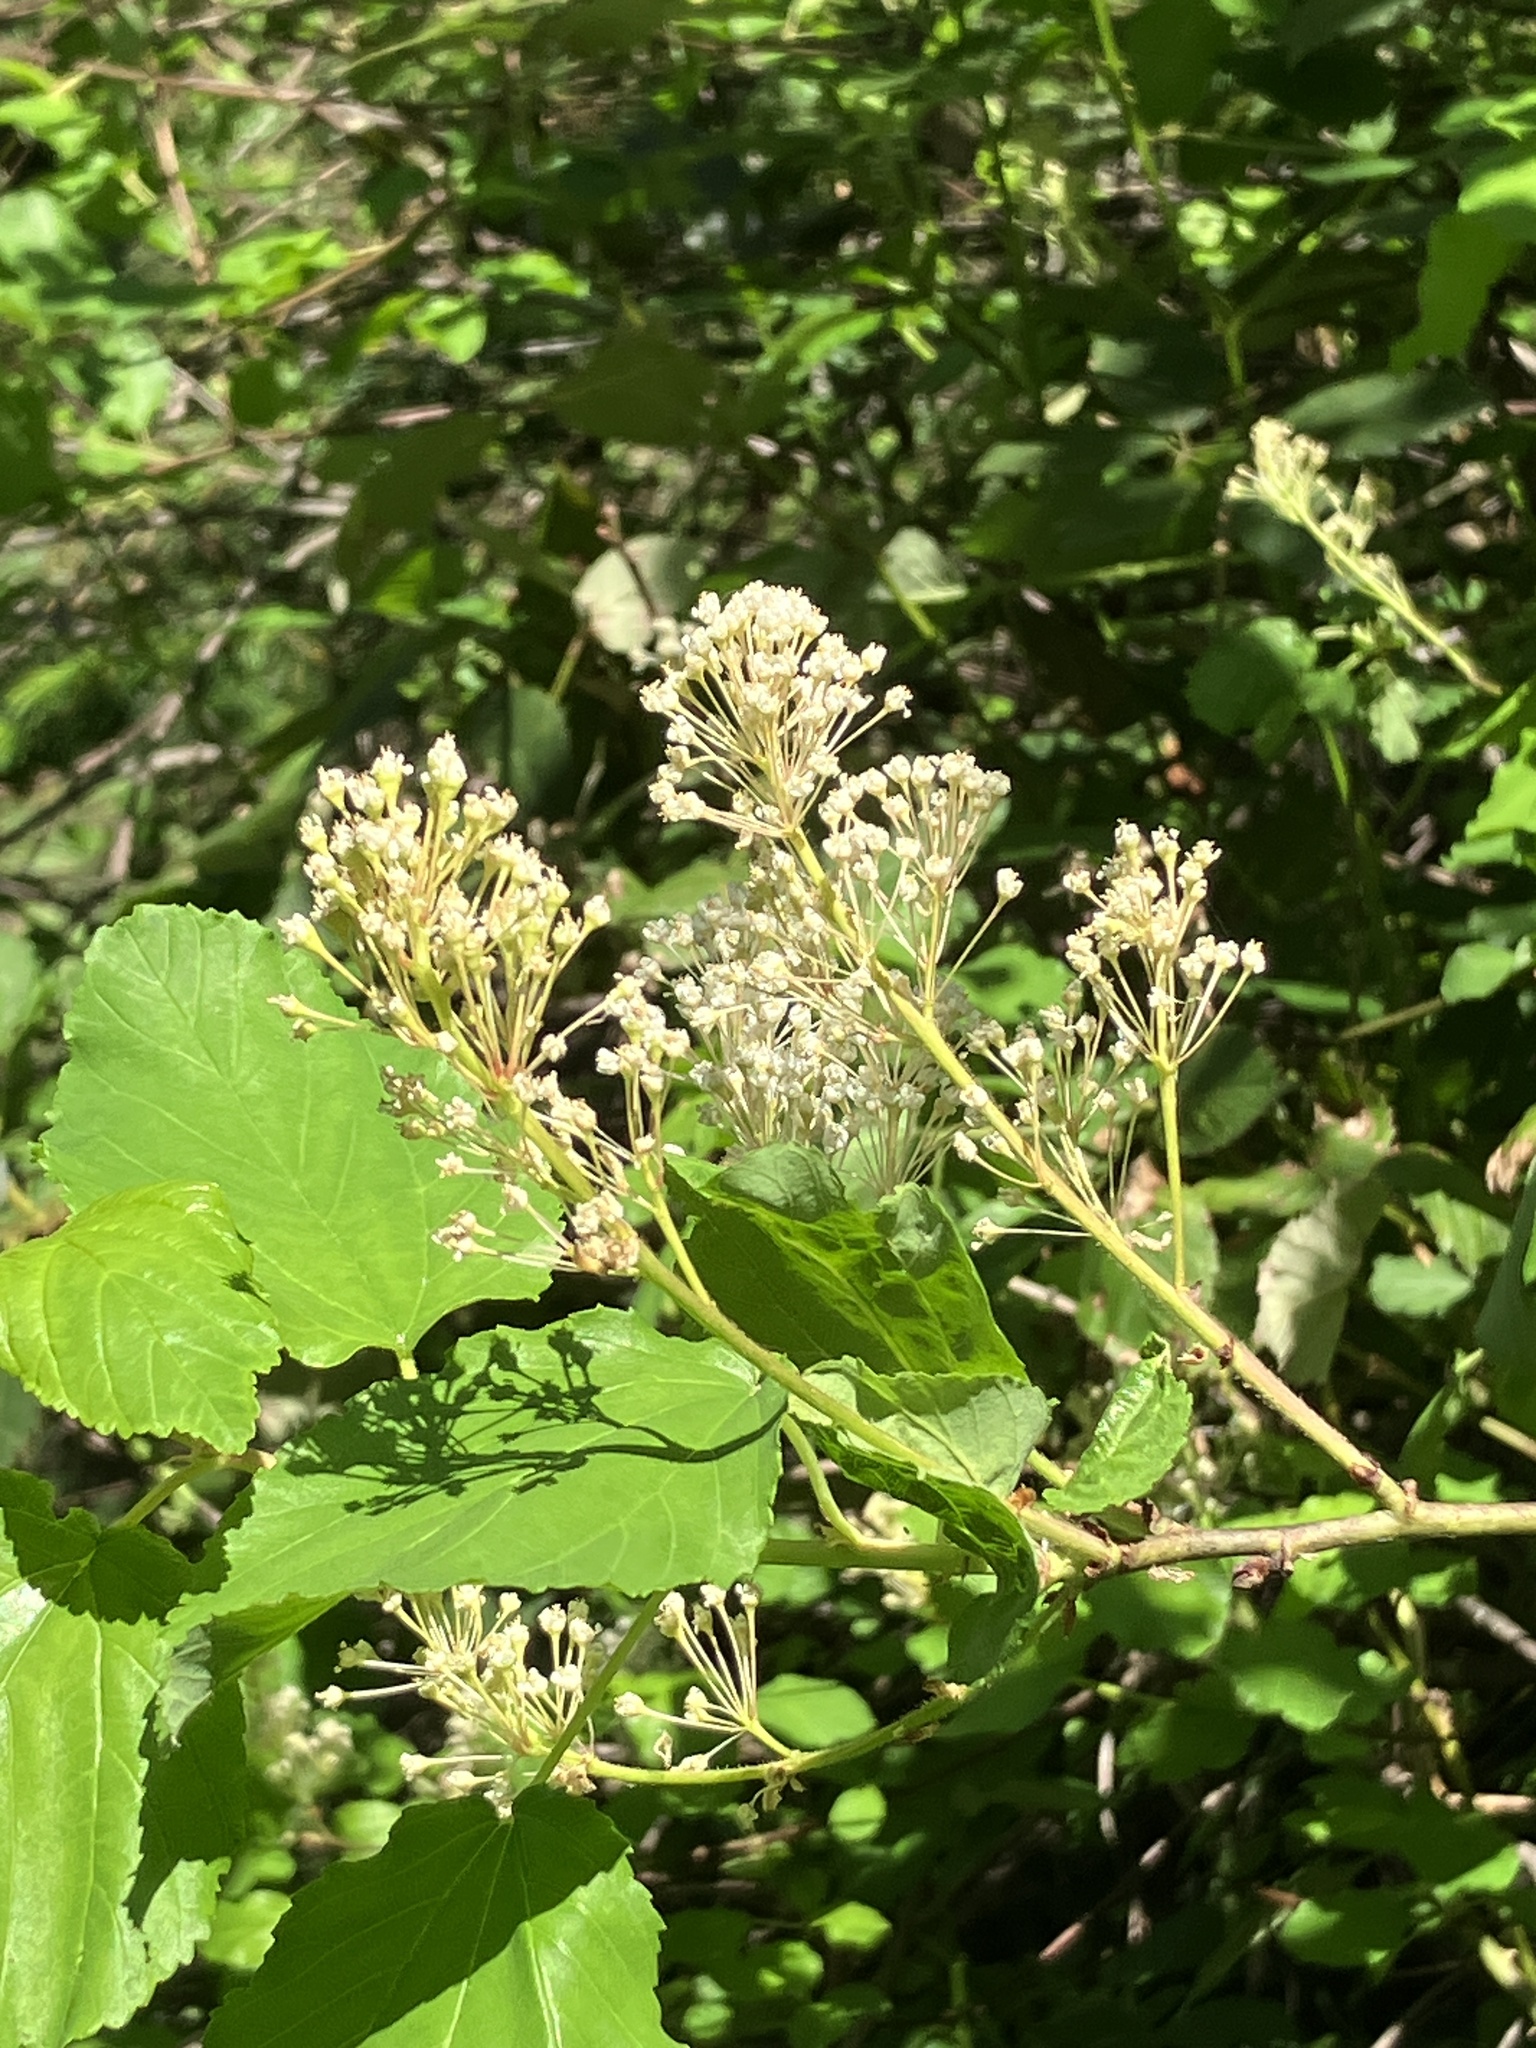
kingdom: Plantae
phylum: Tracheophyta
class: Magnoliopsida
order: Rosales
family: Rhamnaceae
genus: Ceanothus
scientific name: Ceanothus sanguineus
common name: Teatree
